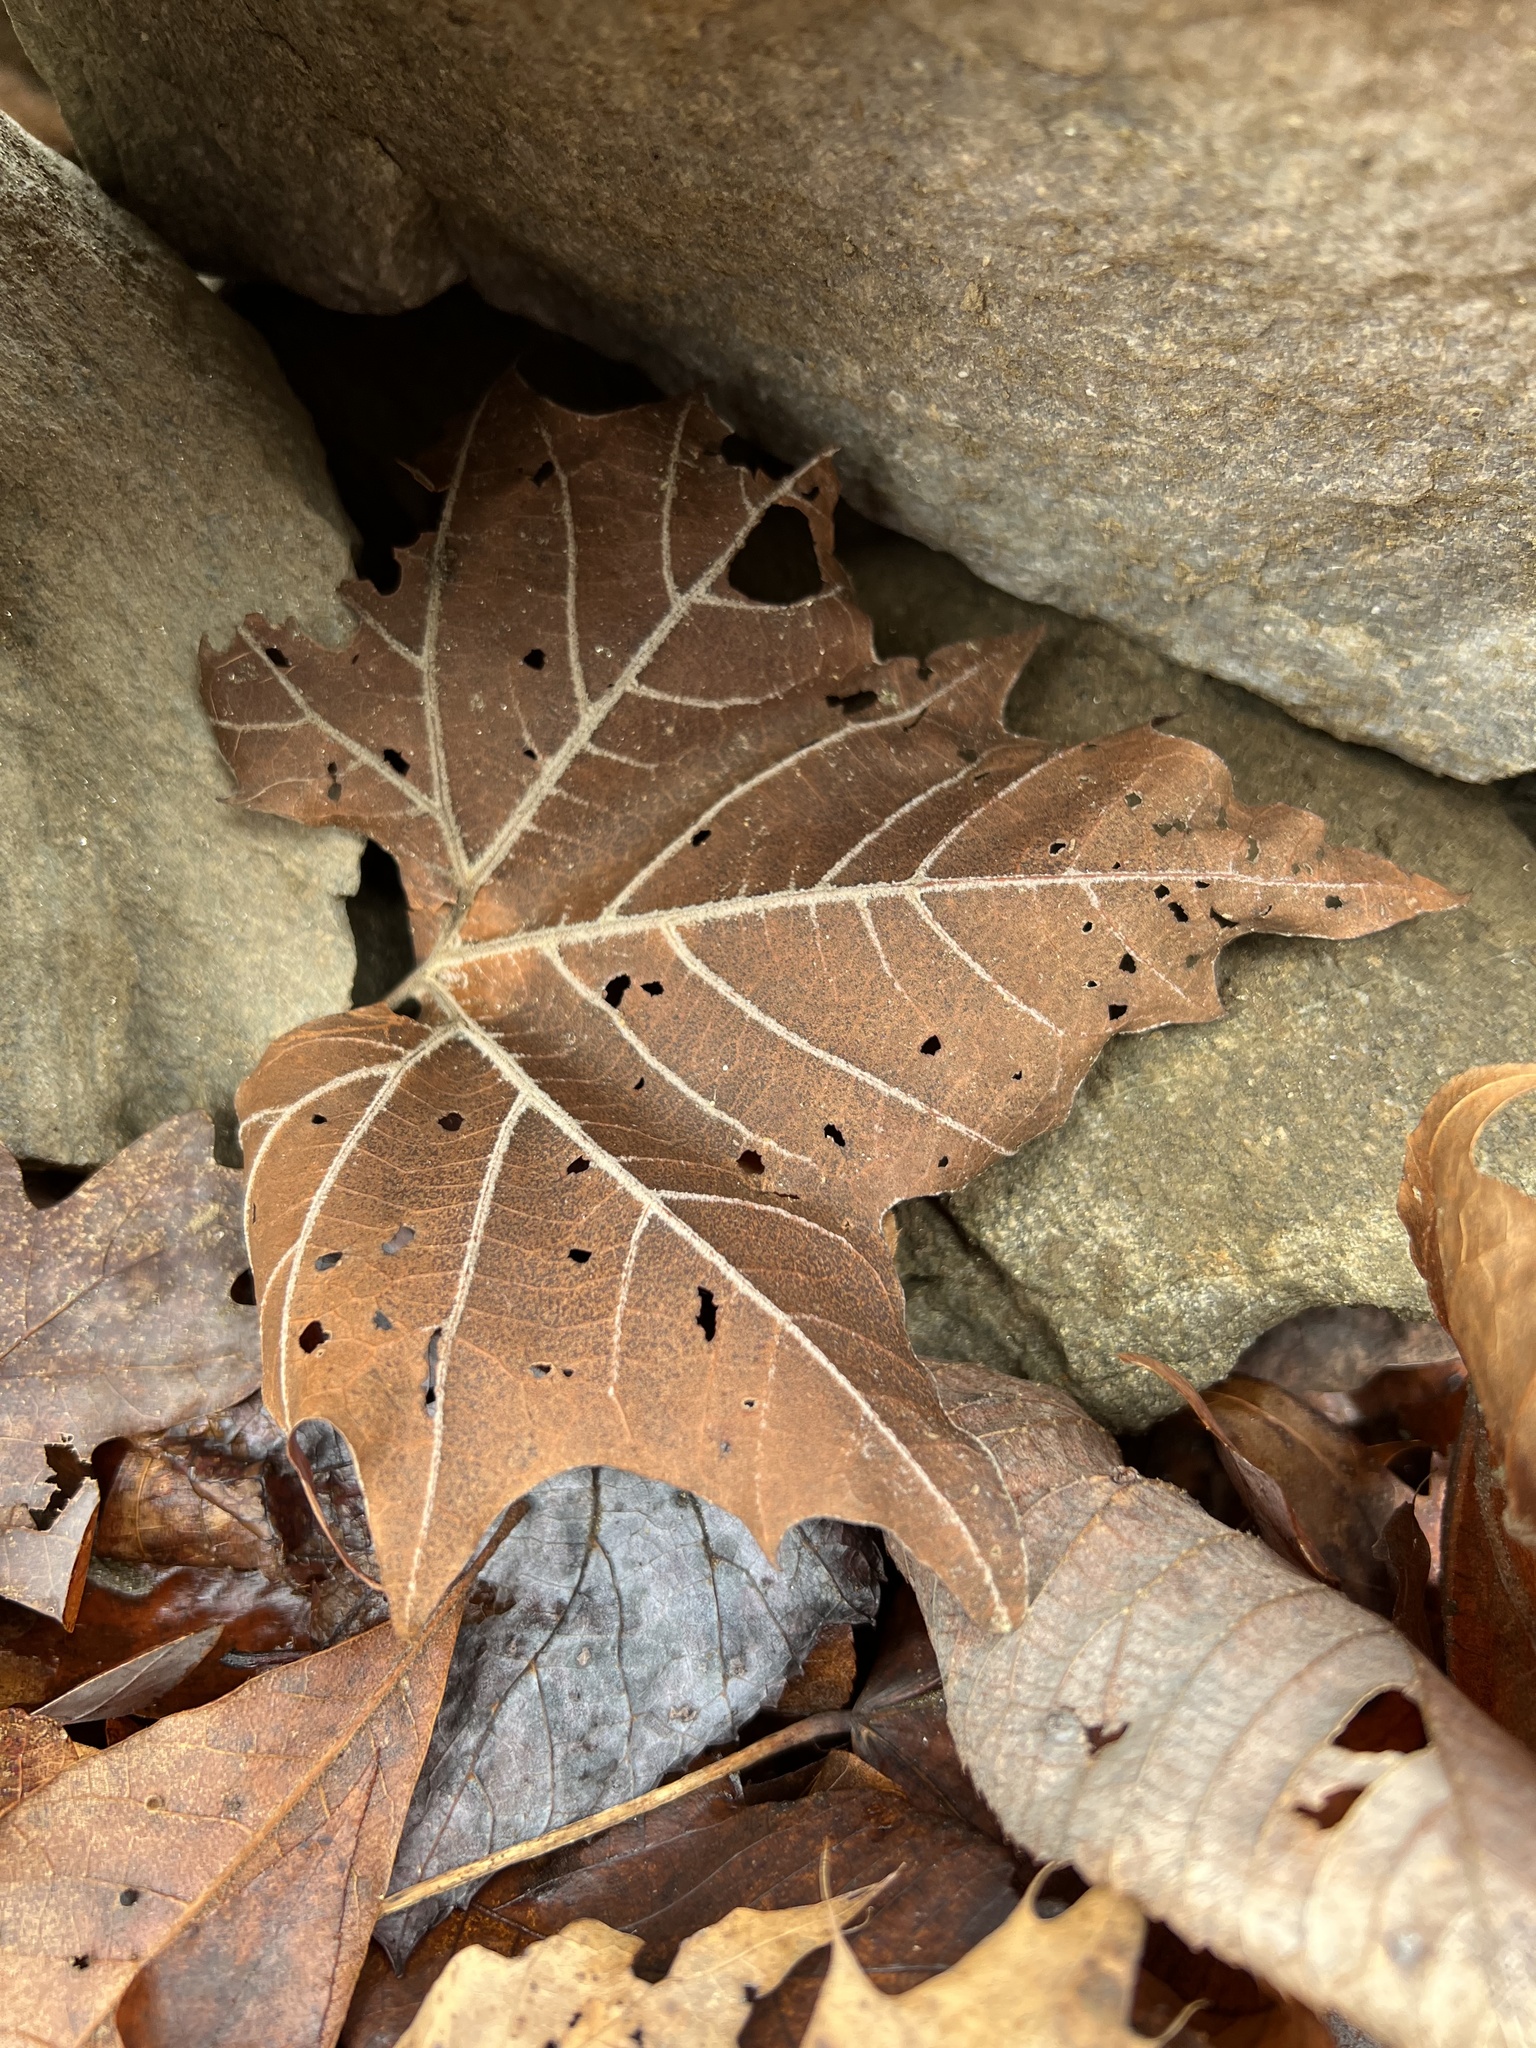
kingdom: Plantae
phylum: Tracheophyta
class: Polypodiopsida
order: Ophioglossales
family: Ophioglossaceae
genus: Sceptridium
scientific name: Sceptridium dissectum
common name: Cut-leaved grapefern
